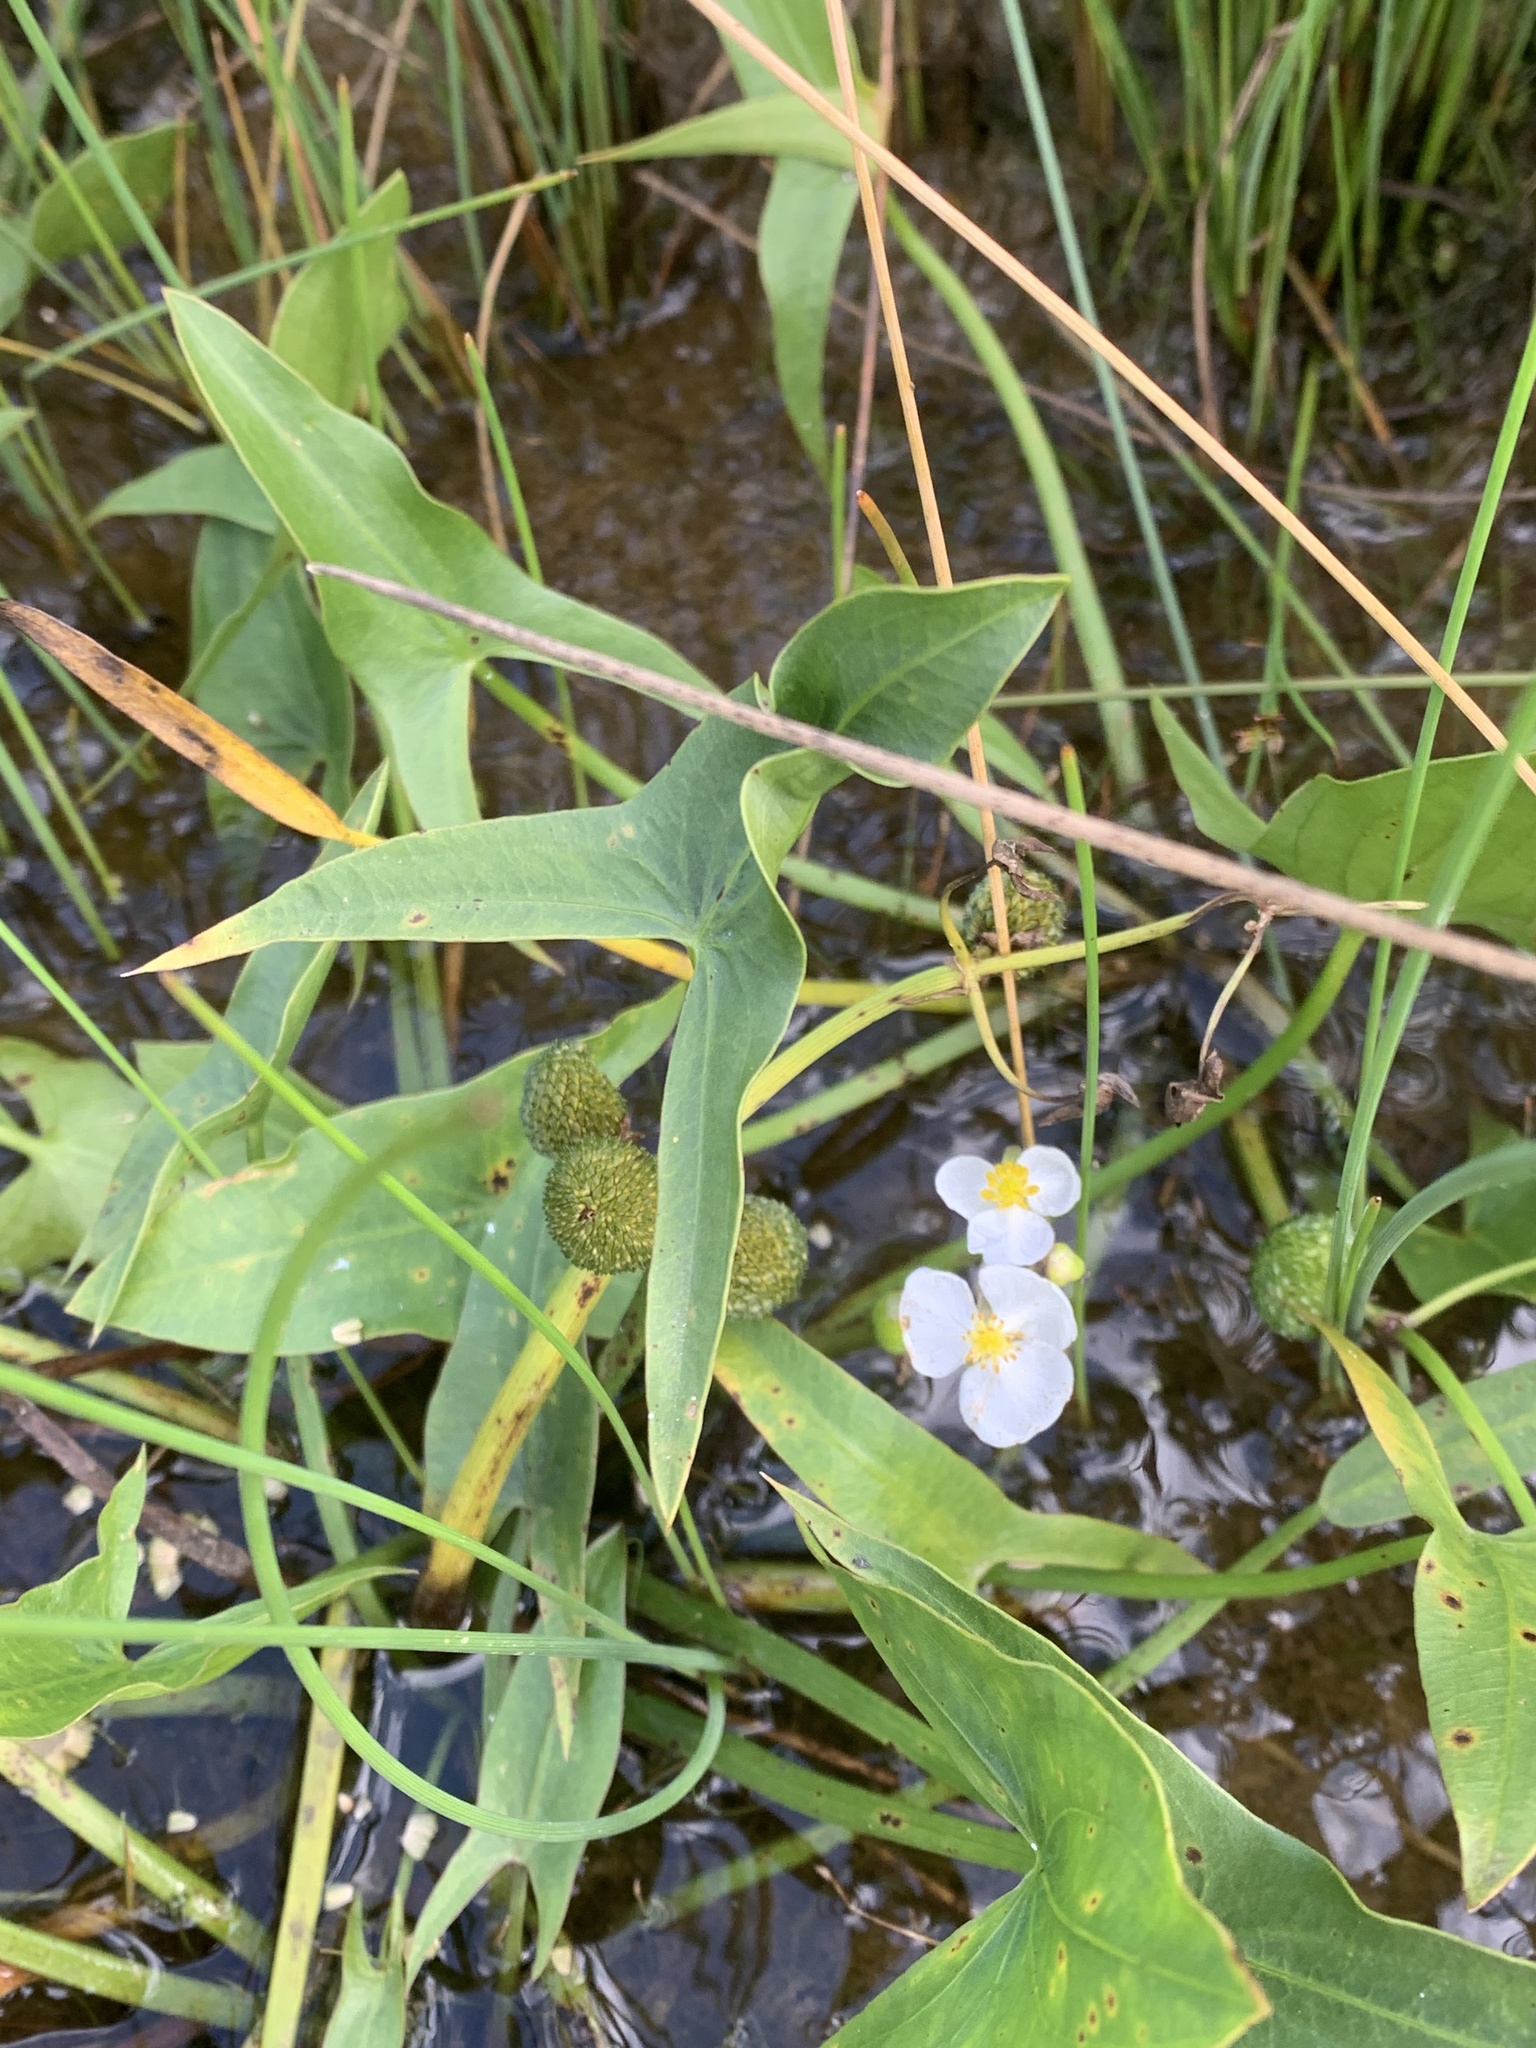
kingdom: Plantae
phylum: Tracheophyta
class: Liliopsida
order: Alismatales
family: Alismataceae
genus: Sagittaria
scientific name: Sagittaria cuneata
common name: Northern arrowhead
